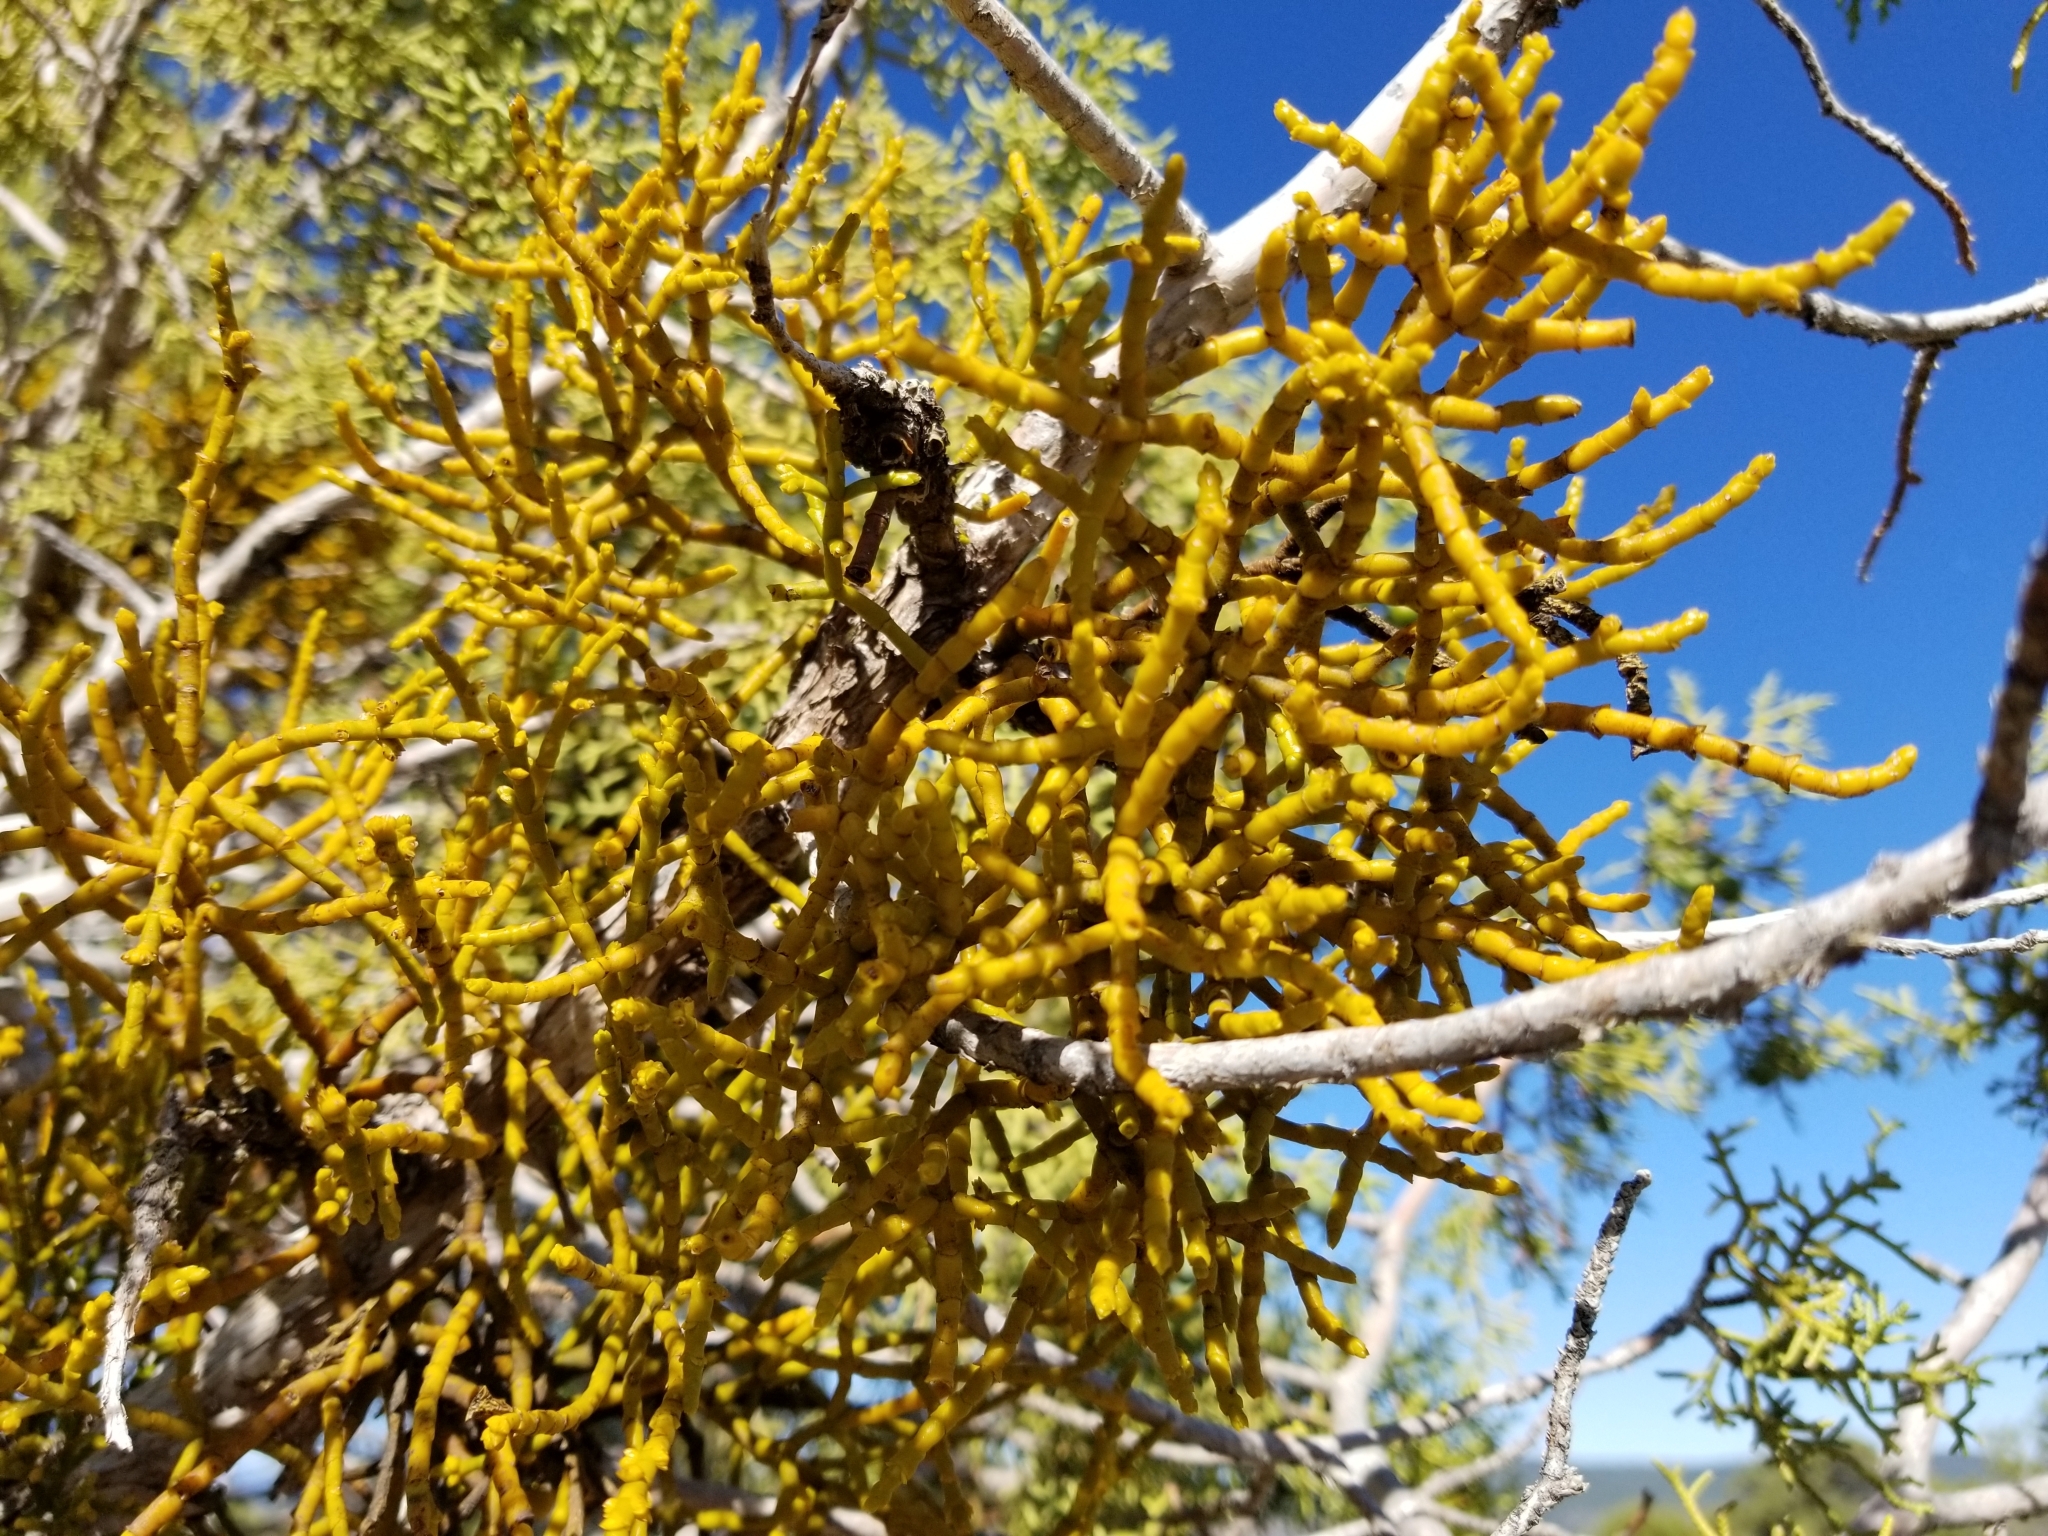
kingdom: Plantae
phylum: Tracheophyta
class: Magnoliopsida
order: Santalales
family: Viscaceae
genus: Phoradendron
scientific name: Phoradendron juniperinum
